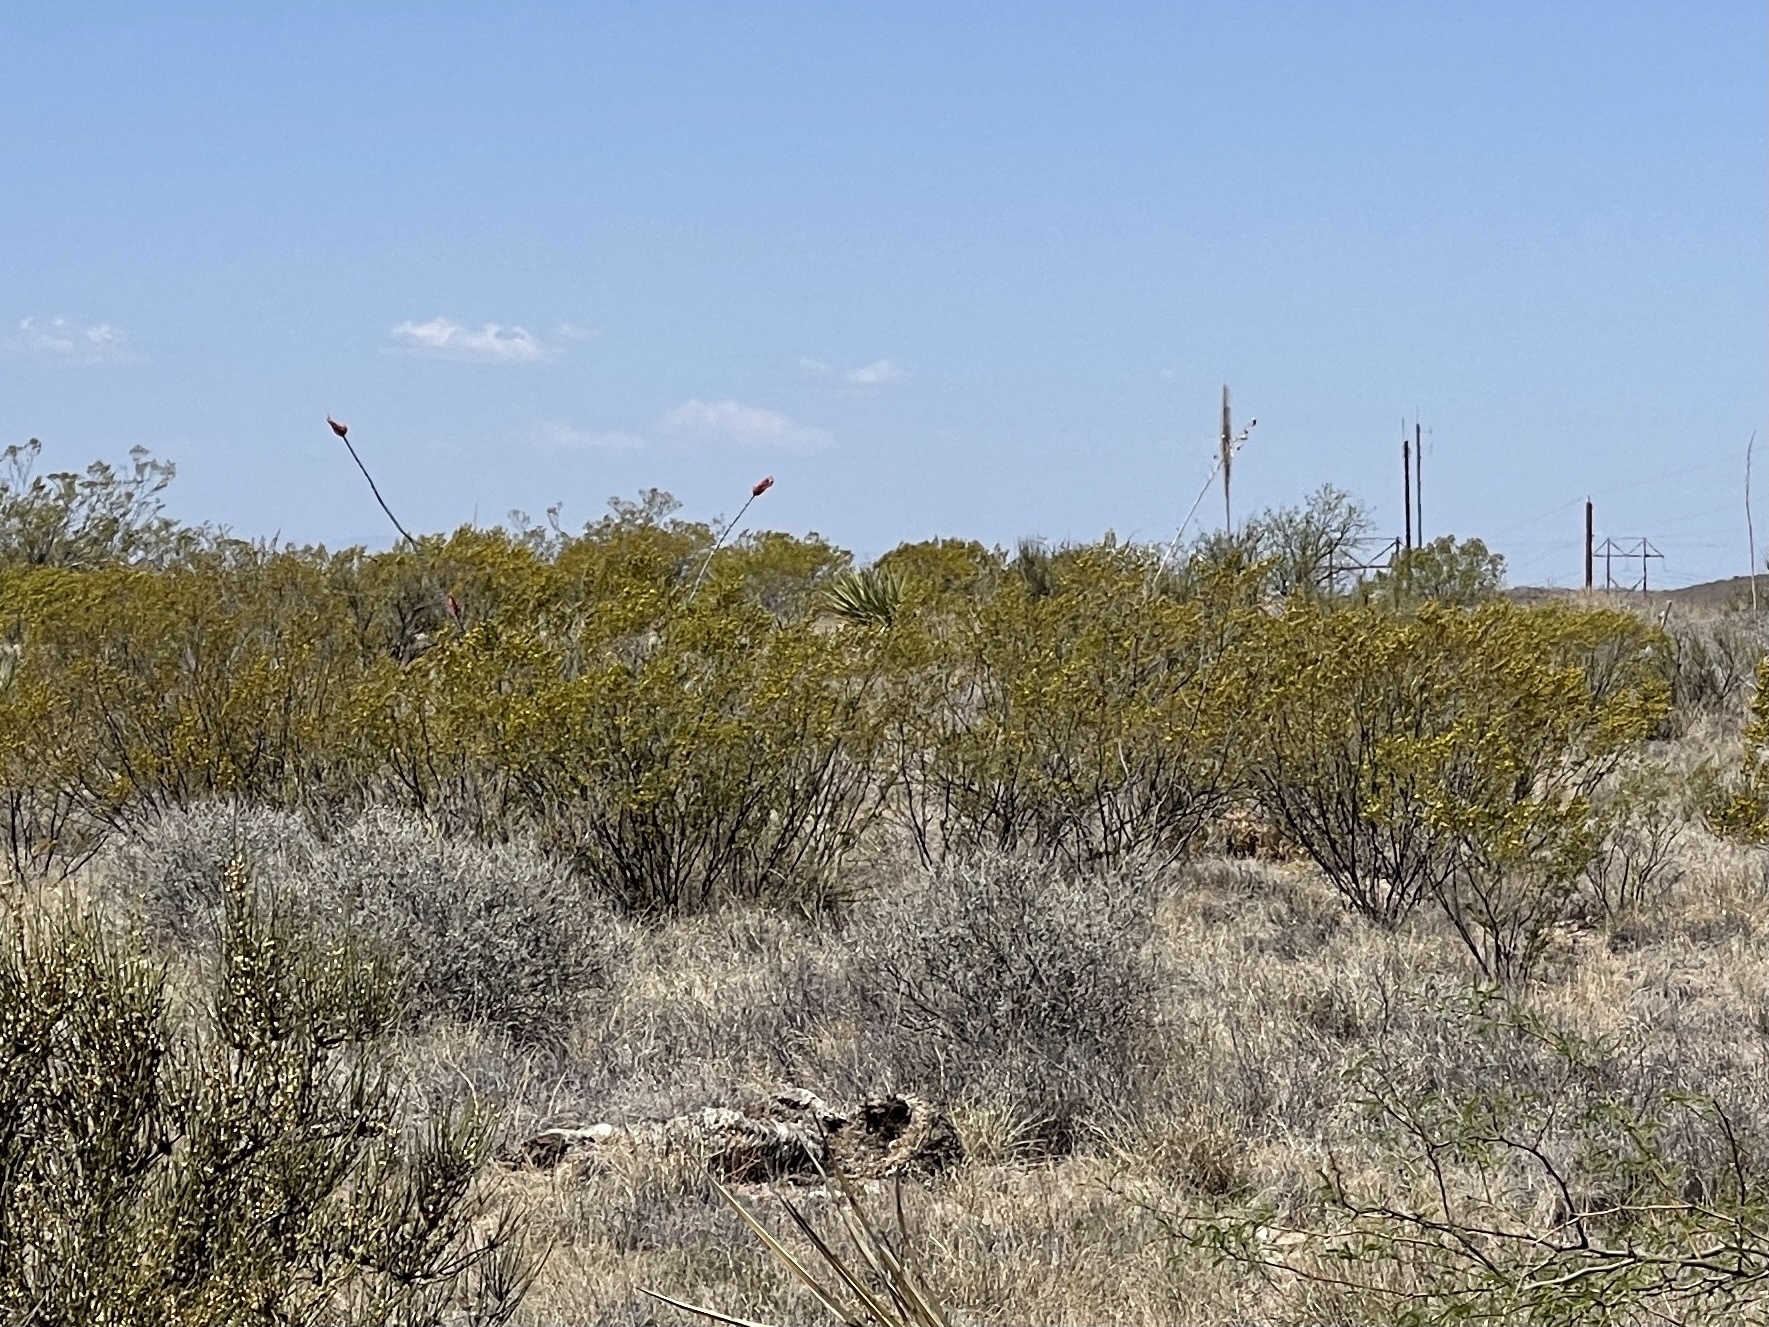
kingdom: Plantae
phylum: Tracheophyta
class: Magnoliopsida
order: Zygophyllales
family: Zygophyllaceae
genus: Larrea
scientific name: Larrea tridentata
